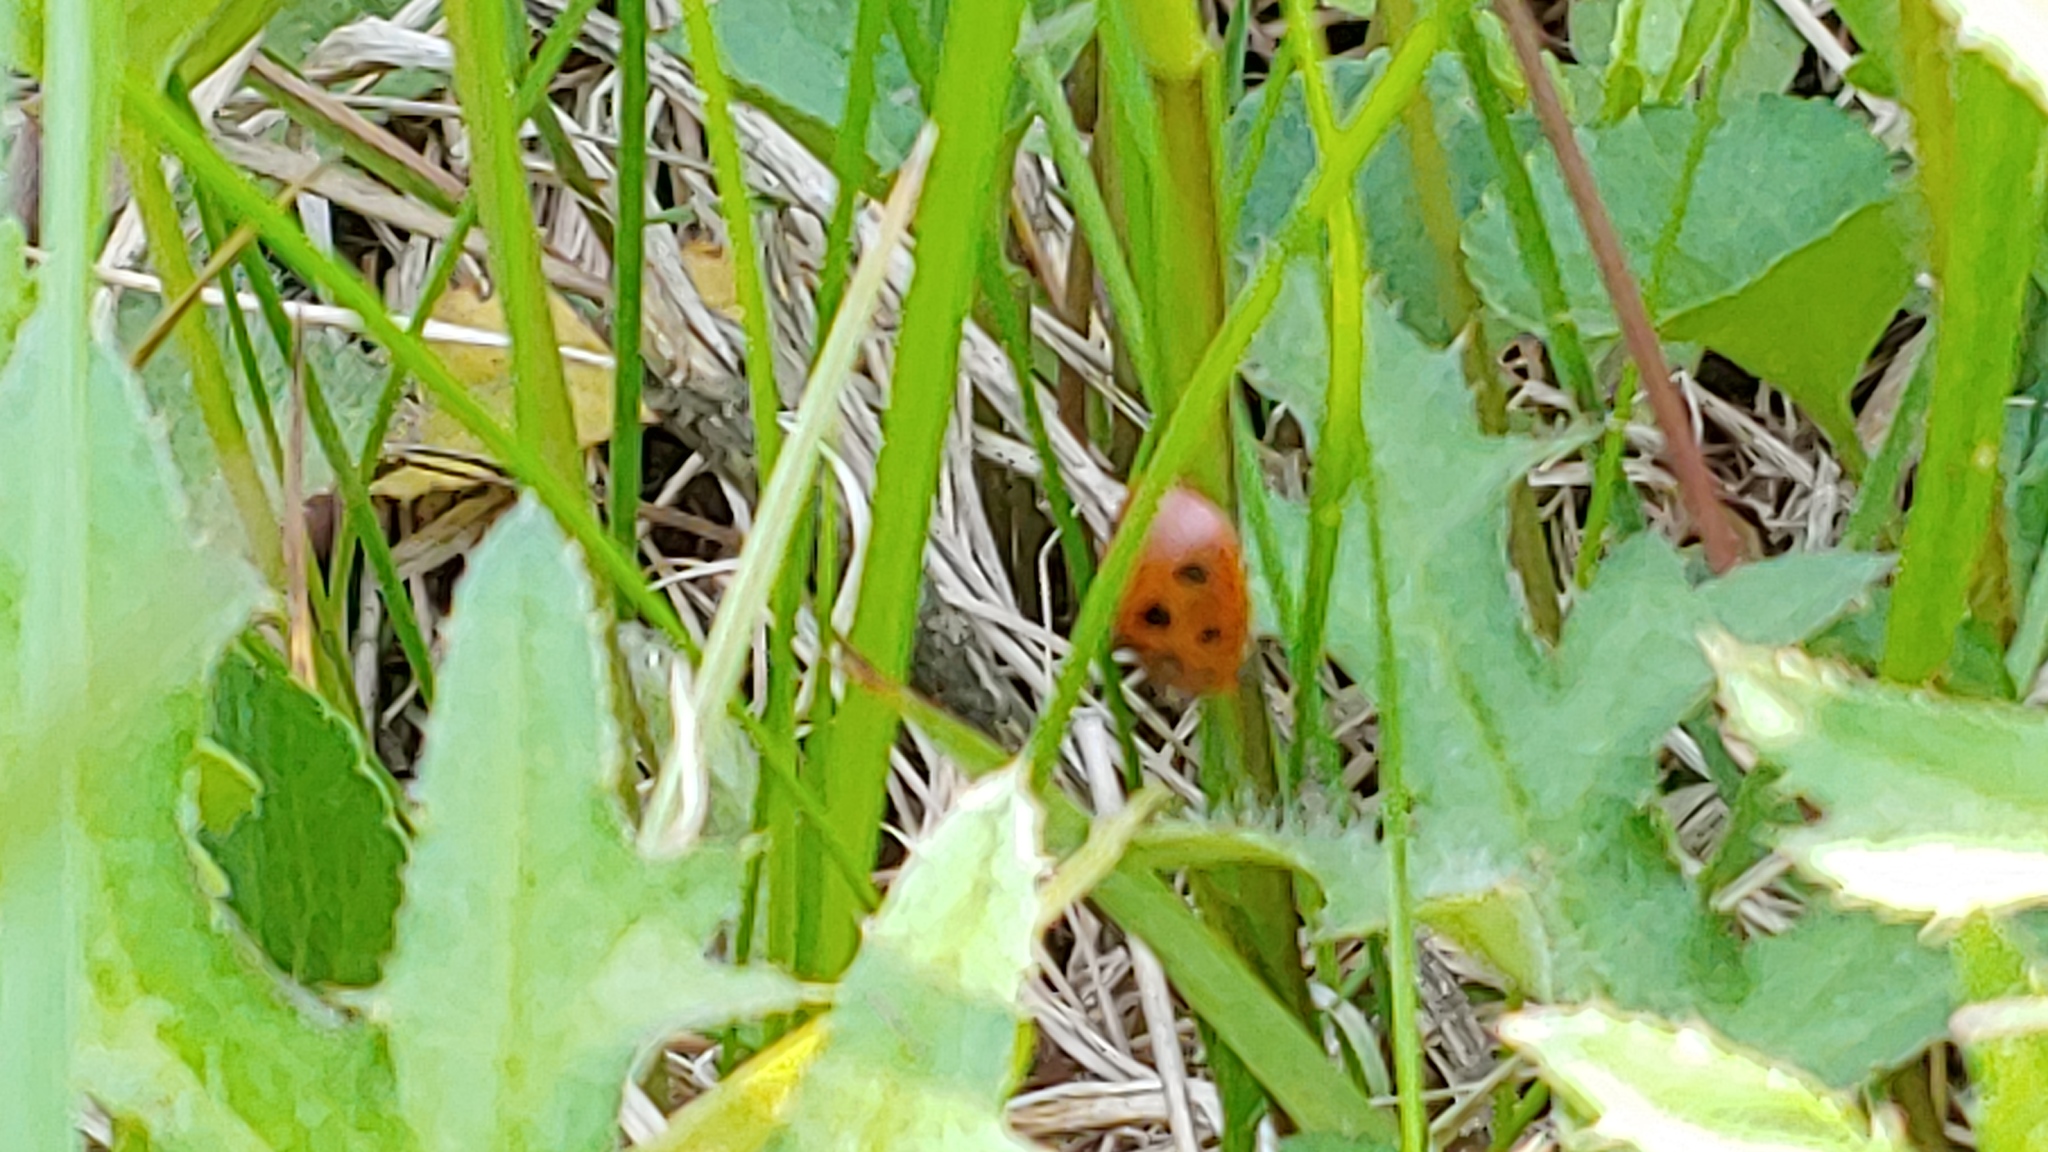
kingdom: Animalia
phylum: Arthropoda
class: Insecta
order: Coleoptera
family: Chrysomelidae
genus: Chelymorpha
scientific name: Chelymorpha cassidea
